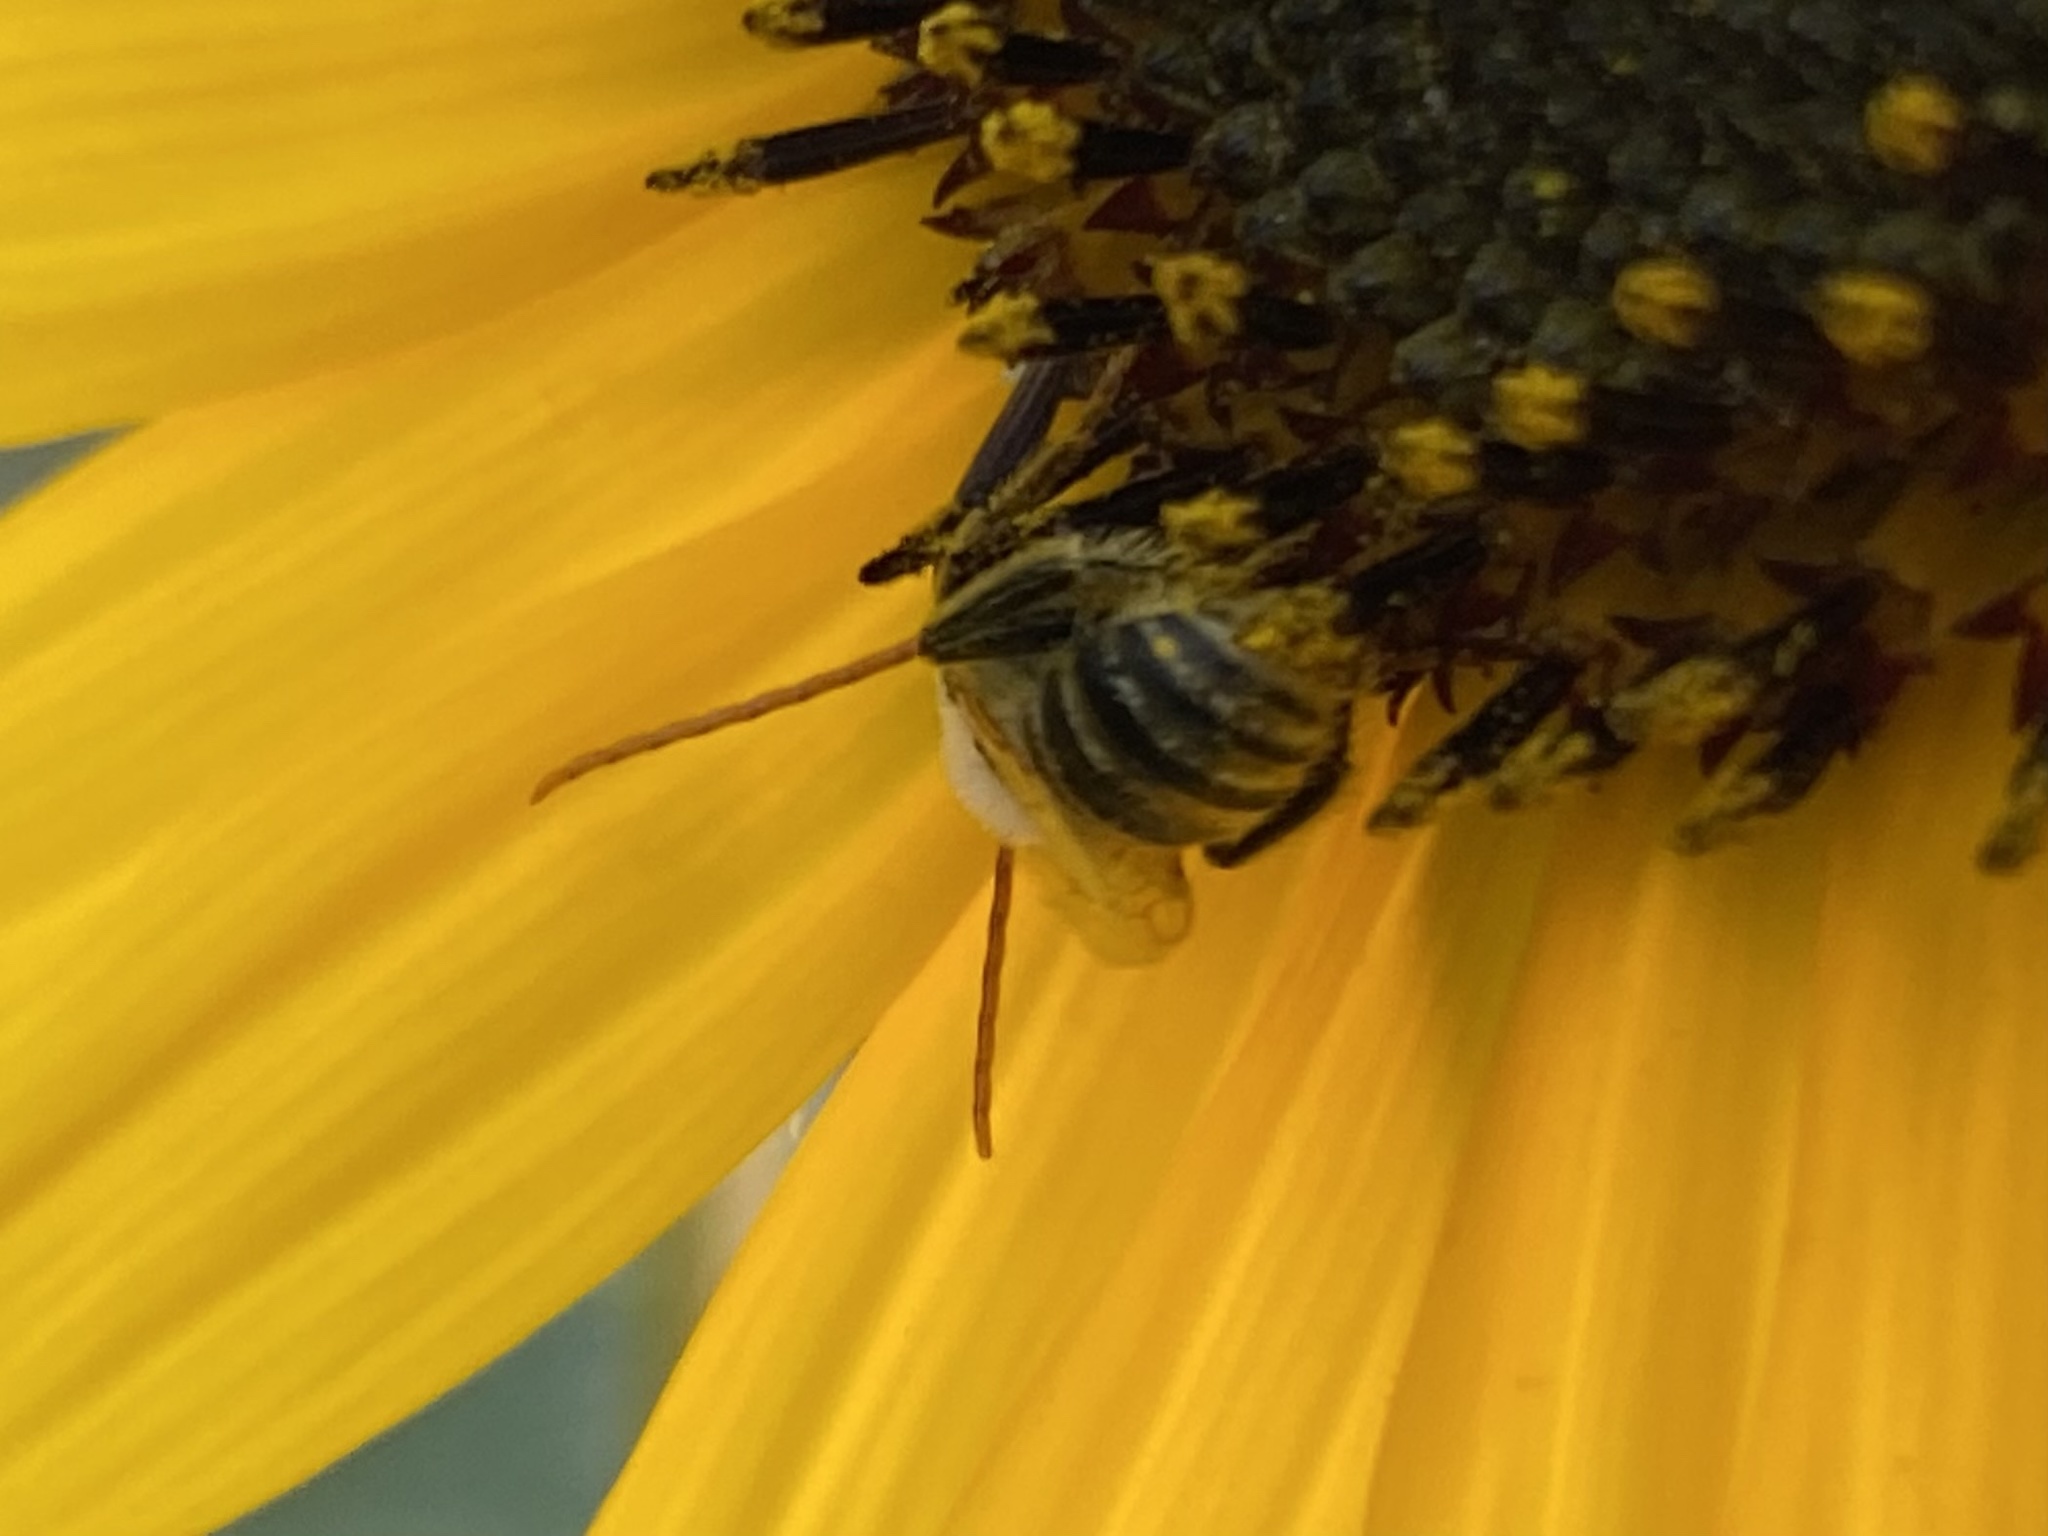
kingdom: Animalia
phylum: Arthropoda
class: Insecta
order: Hymenoptera
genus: Eumelissodes
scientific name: Eumelissodes
